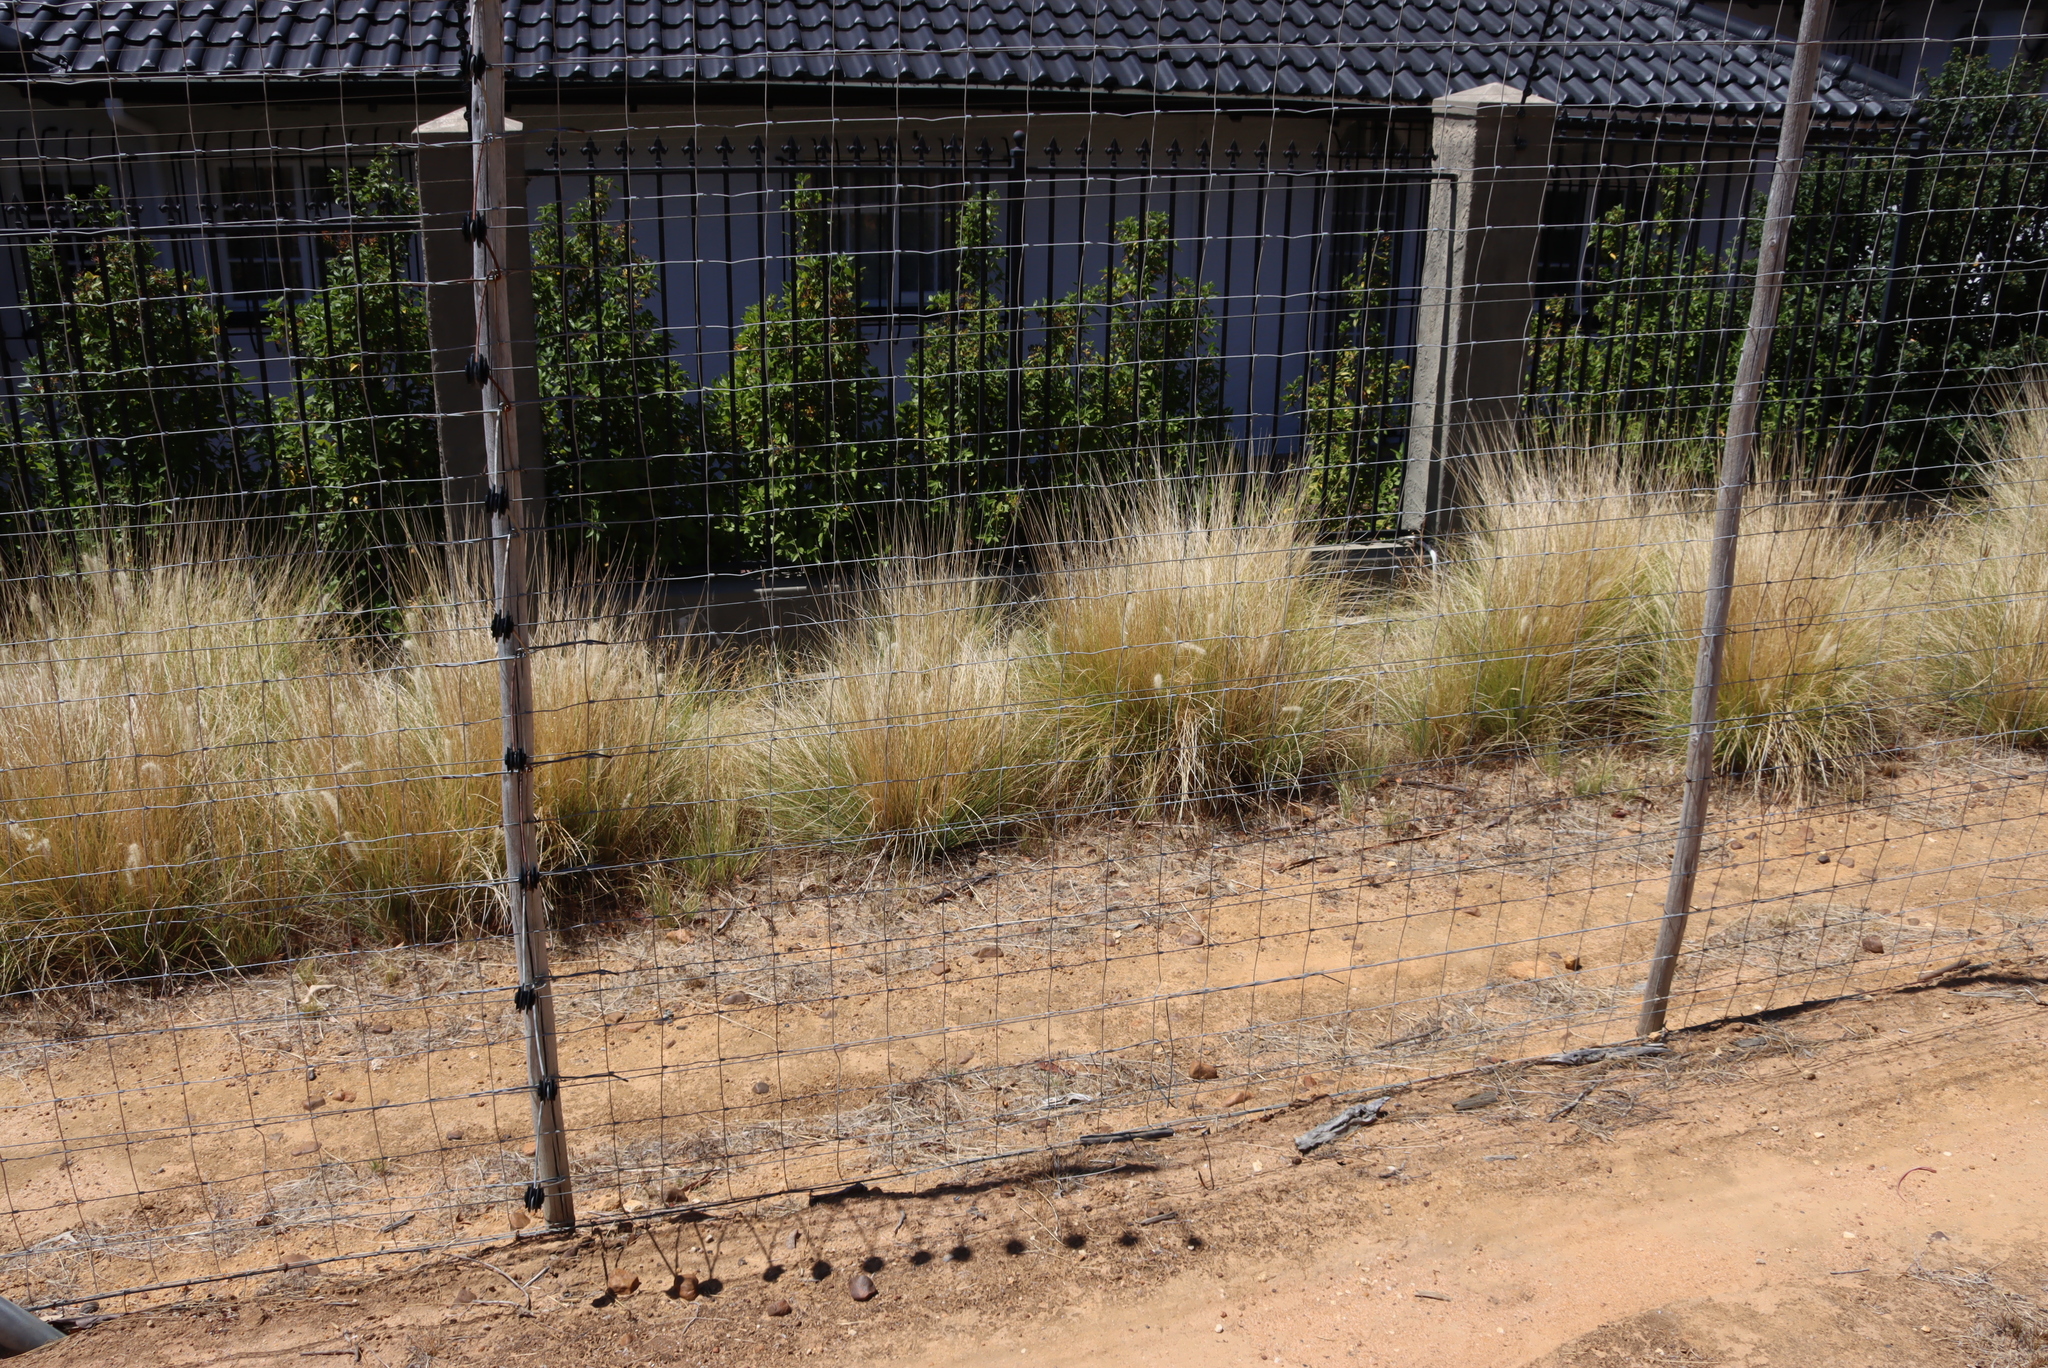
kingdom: Plantae
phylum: Tracheophyta
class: Liliopsida
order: Poales
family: Poaceae
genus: Cenchrus
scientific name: Cenchrus setaceus
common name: Crimson fountaingrass
